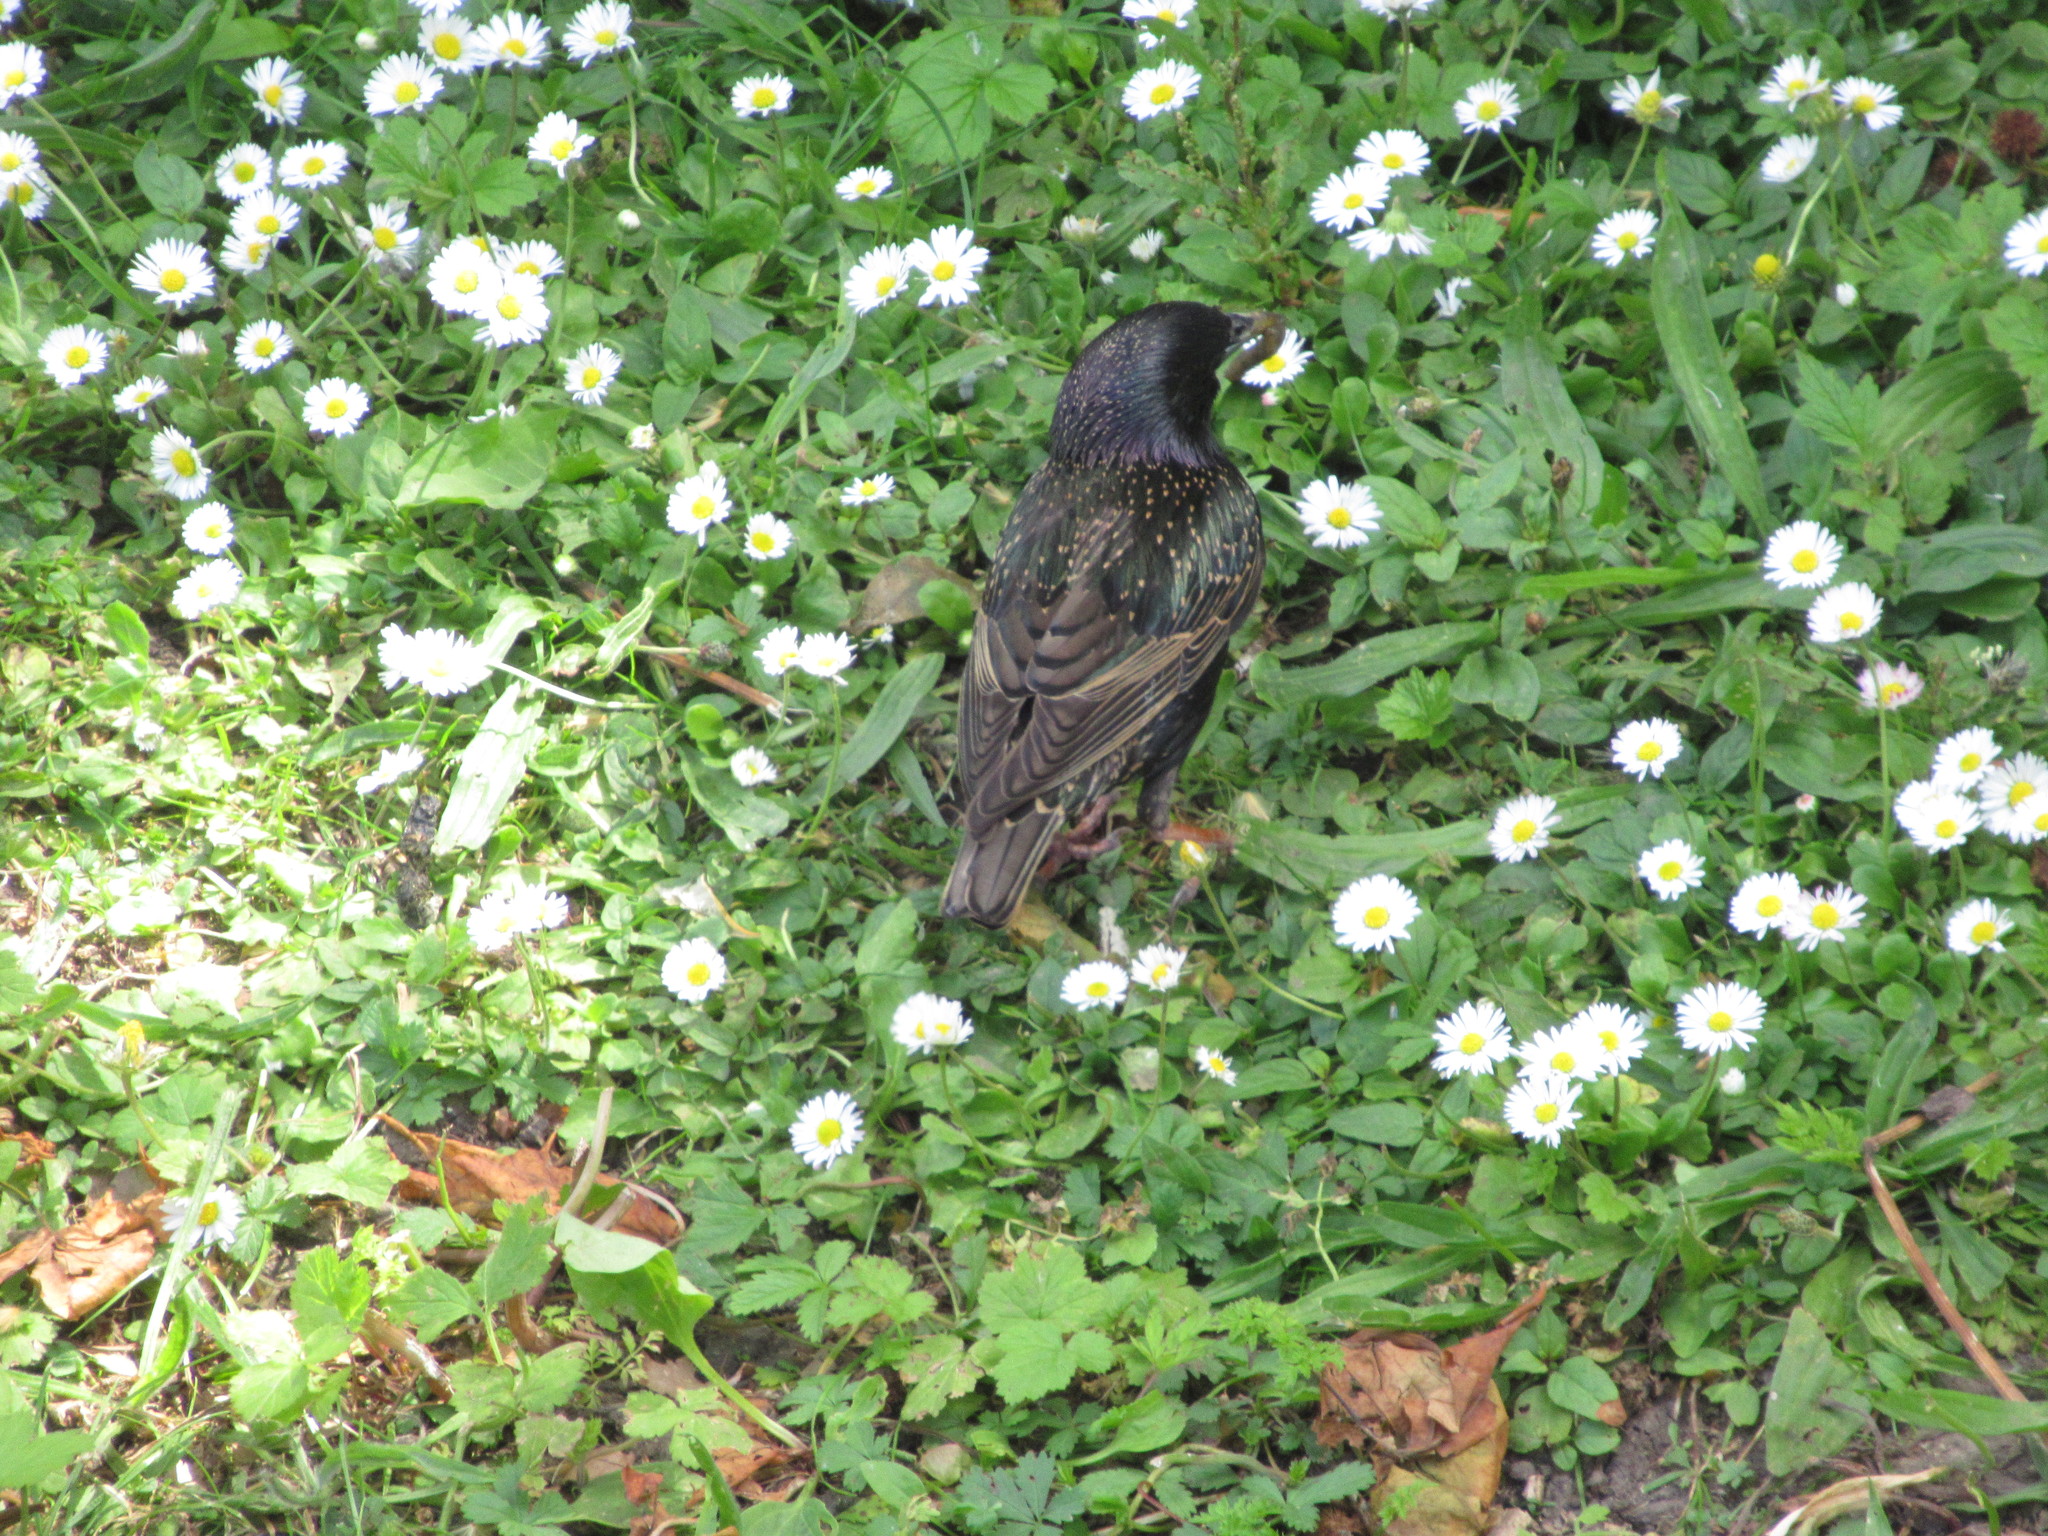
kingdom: Animalia
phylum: Chordata
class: Aves
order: Passeriformes
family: Sturnidae
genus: Sturnus
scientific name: Sturnus vulgaris
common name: Common starling
